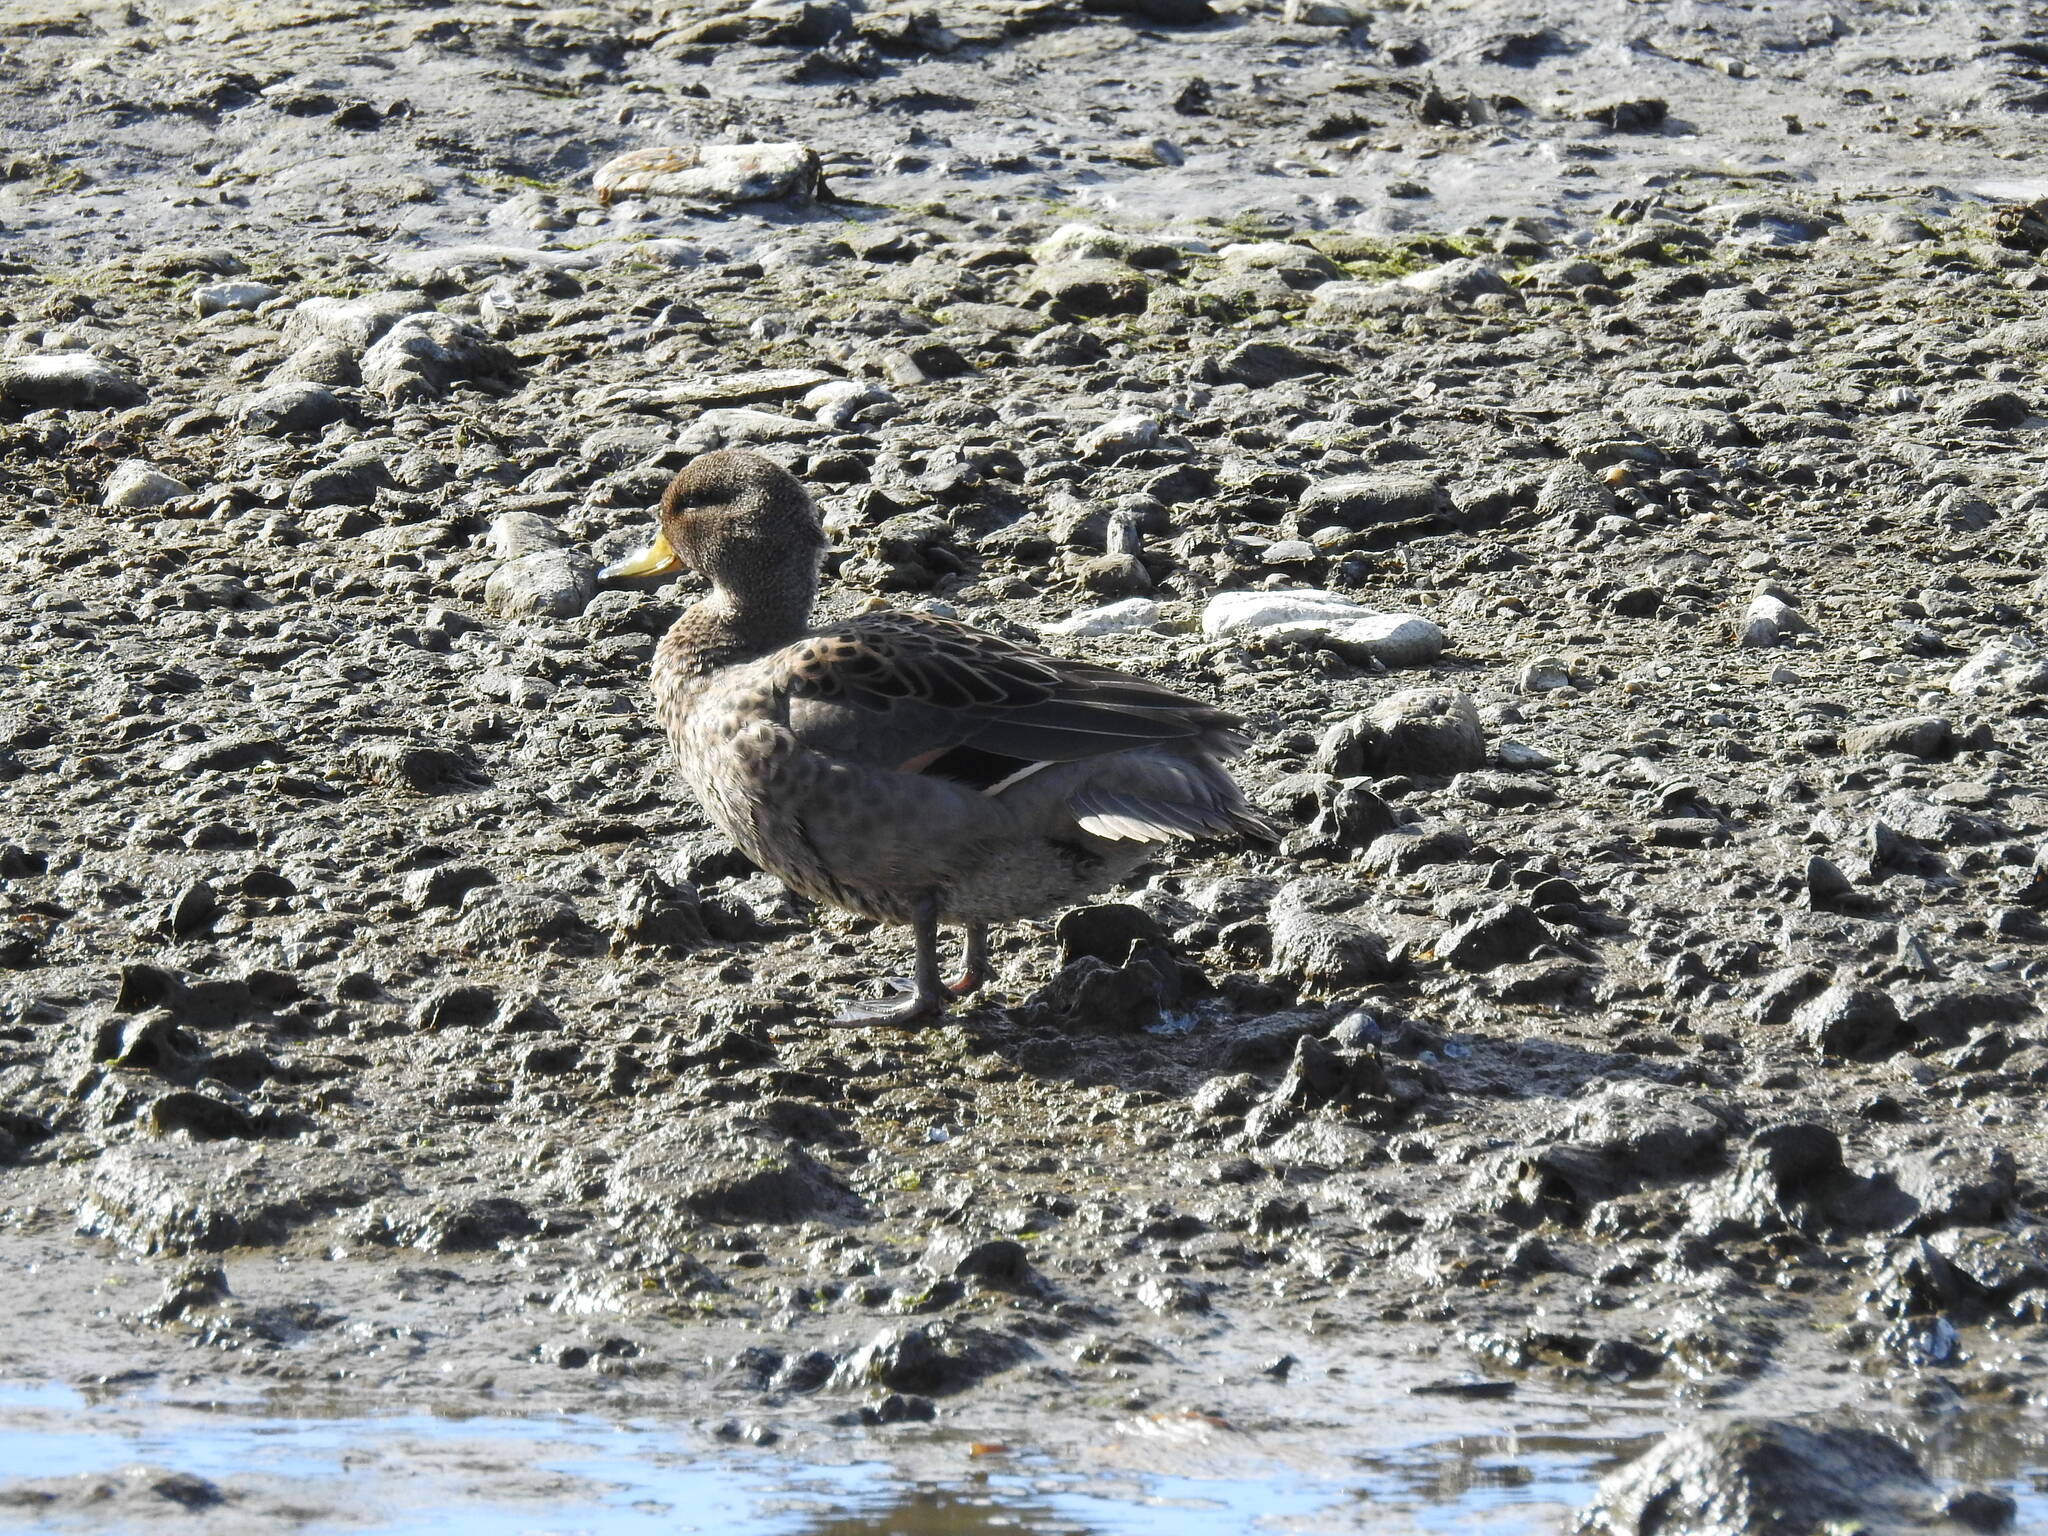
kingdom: Animalia
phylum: Chordata
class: Aves
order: Anseriformes
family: Anatidae
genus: Anas
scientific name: Anas flavirostris
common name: Yellow-billed teal
